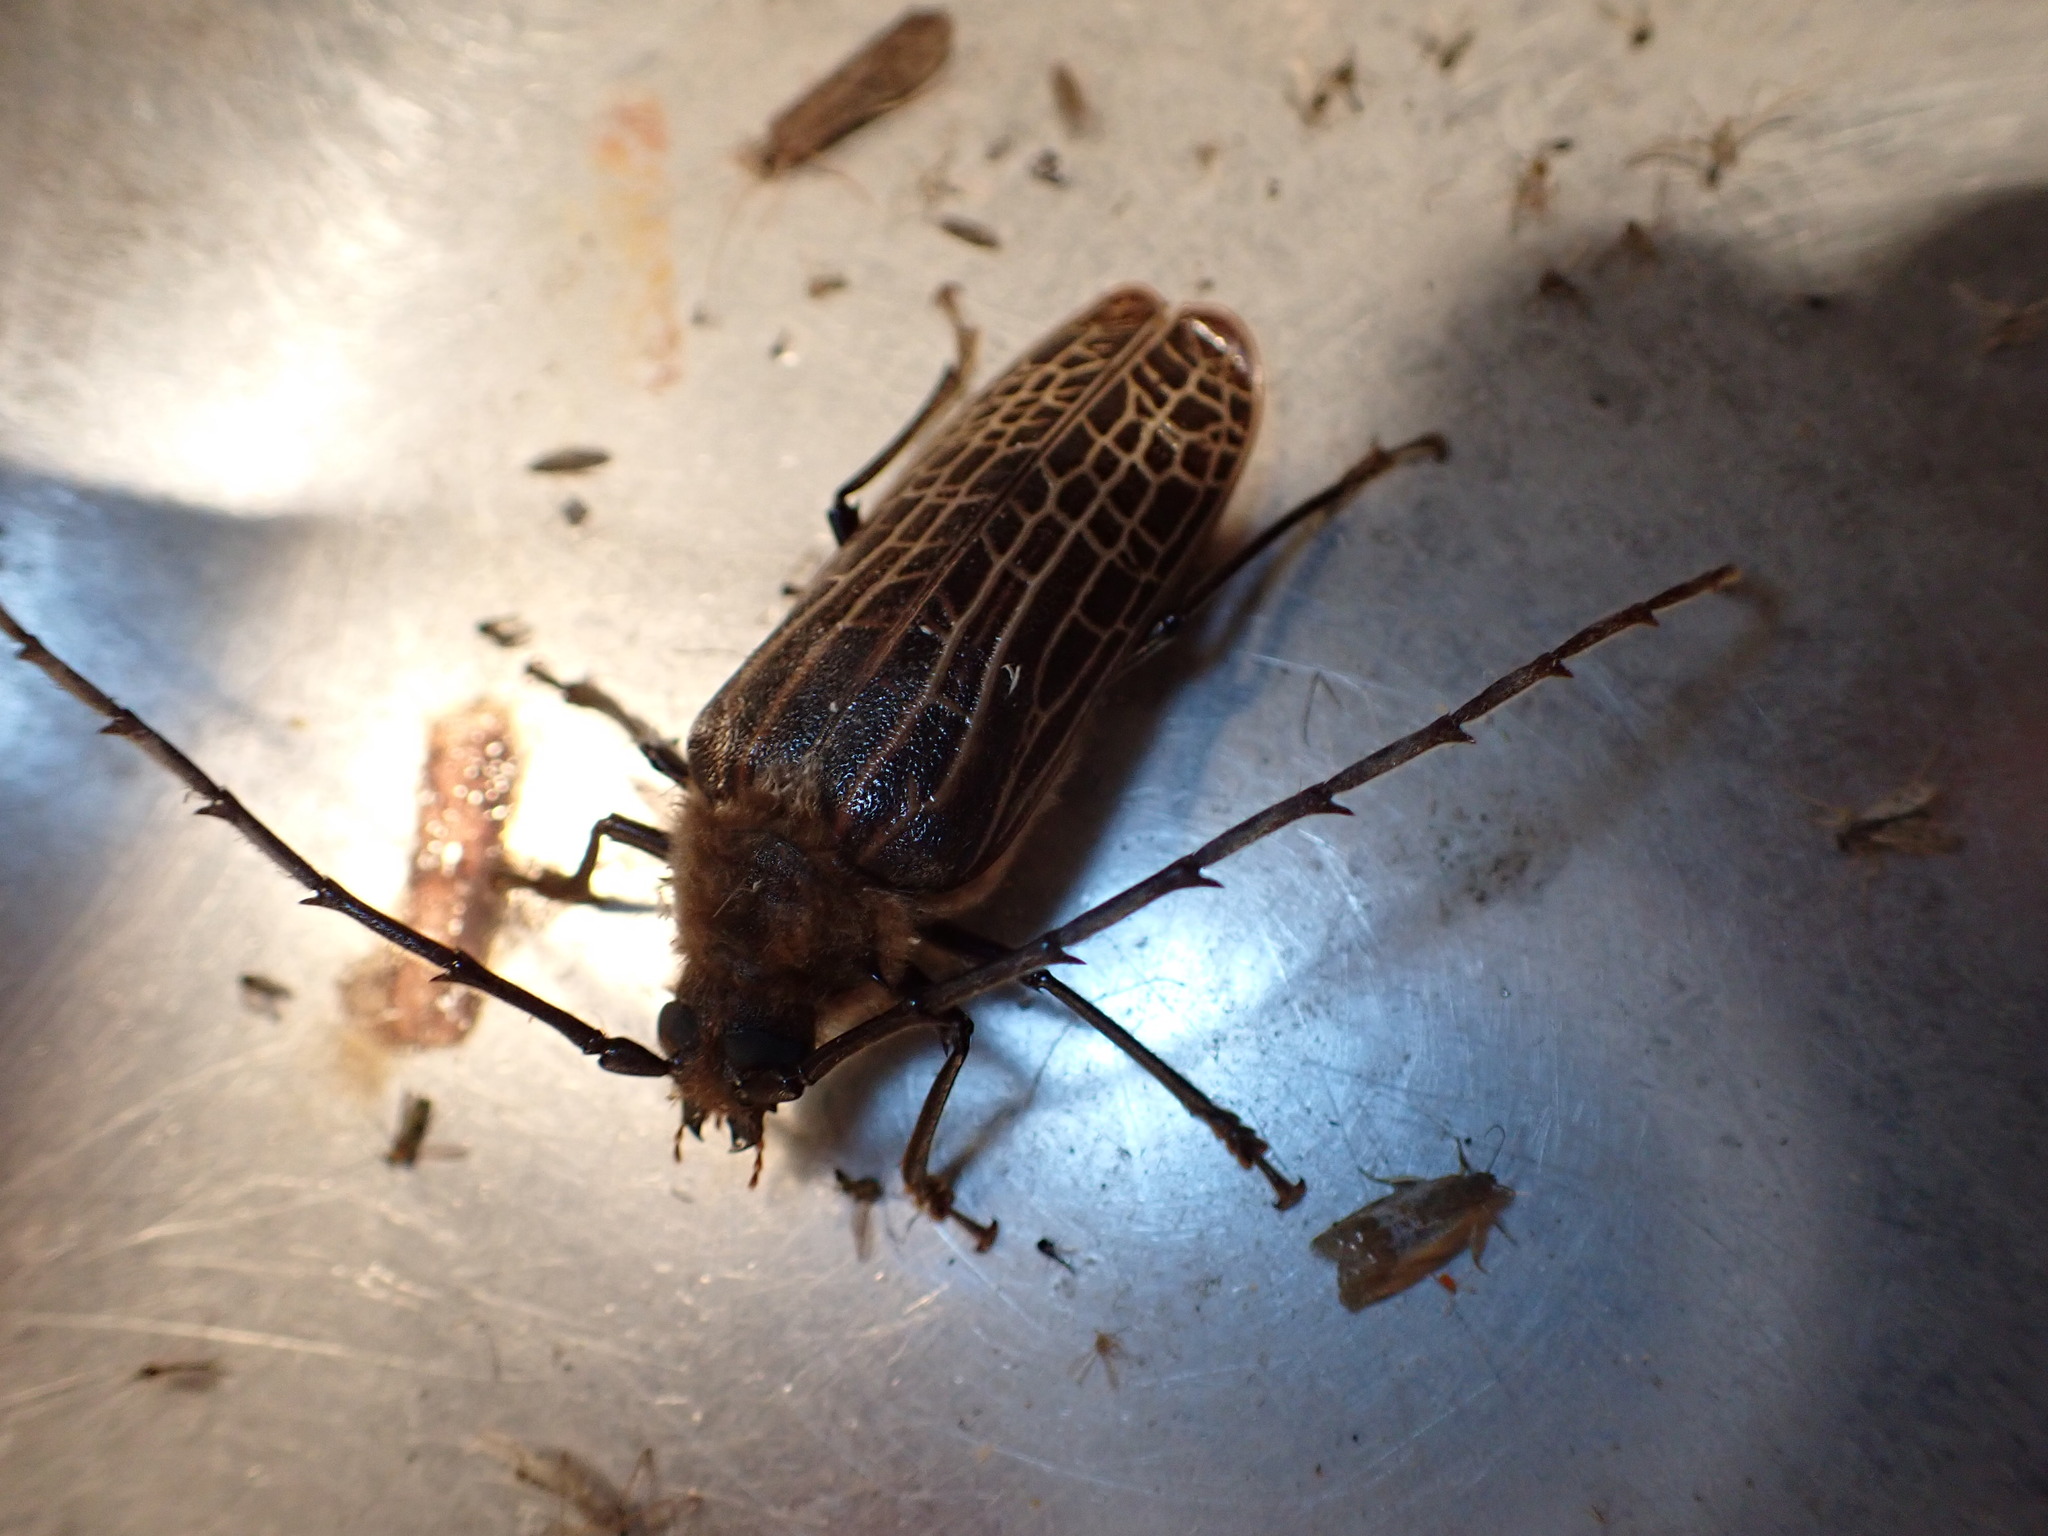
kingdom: Animalia
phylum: Arthropoda
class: Insecta
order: Coleoptera
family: Cerambycidae
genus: Prionoplus
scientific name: Prionoplus reticularis
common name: Huhu beetle
